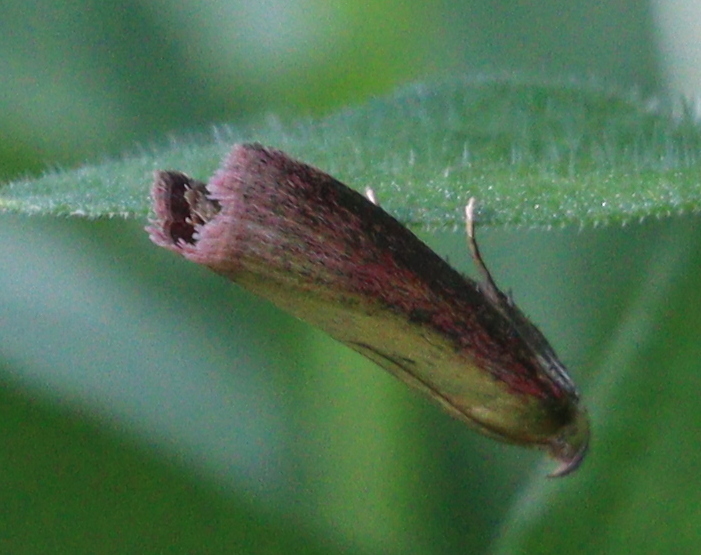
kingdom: Animalia
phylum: Arthropoda
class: Insecta
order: Lepidoptera
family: Pyralidae
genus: Oncocera
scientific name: Oncocera semirubella
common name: Rosy-striped knot-horn
